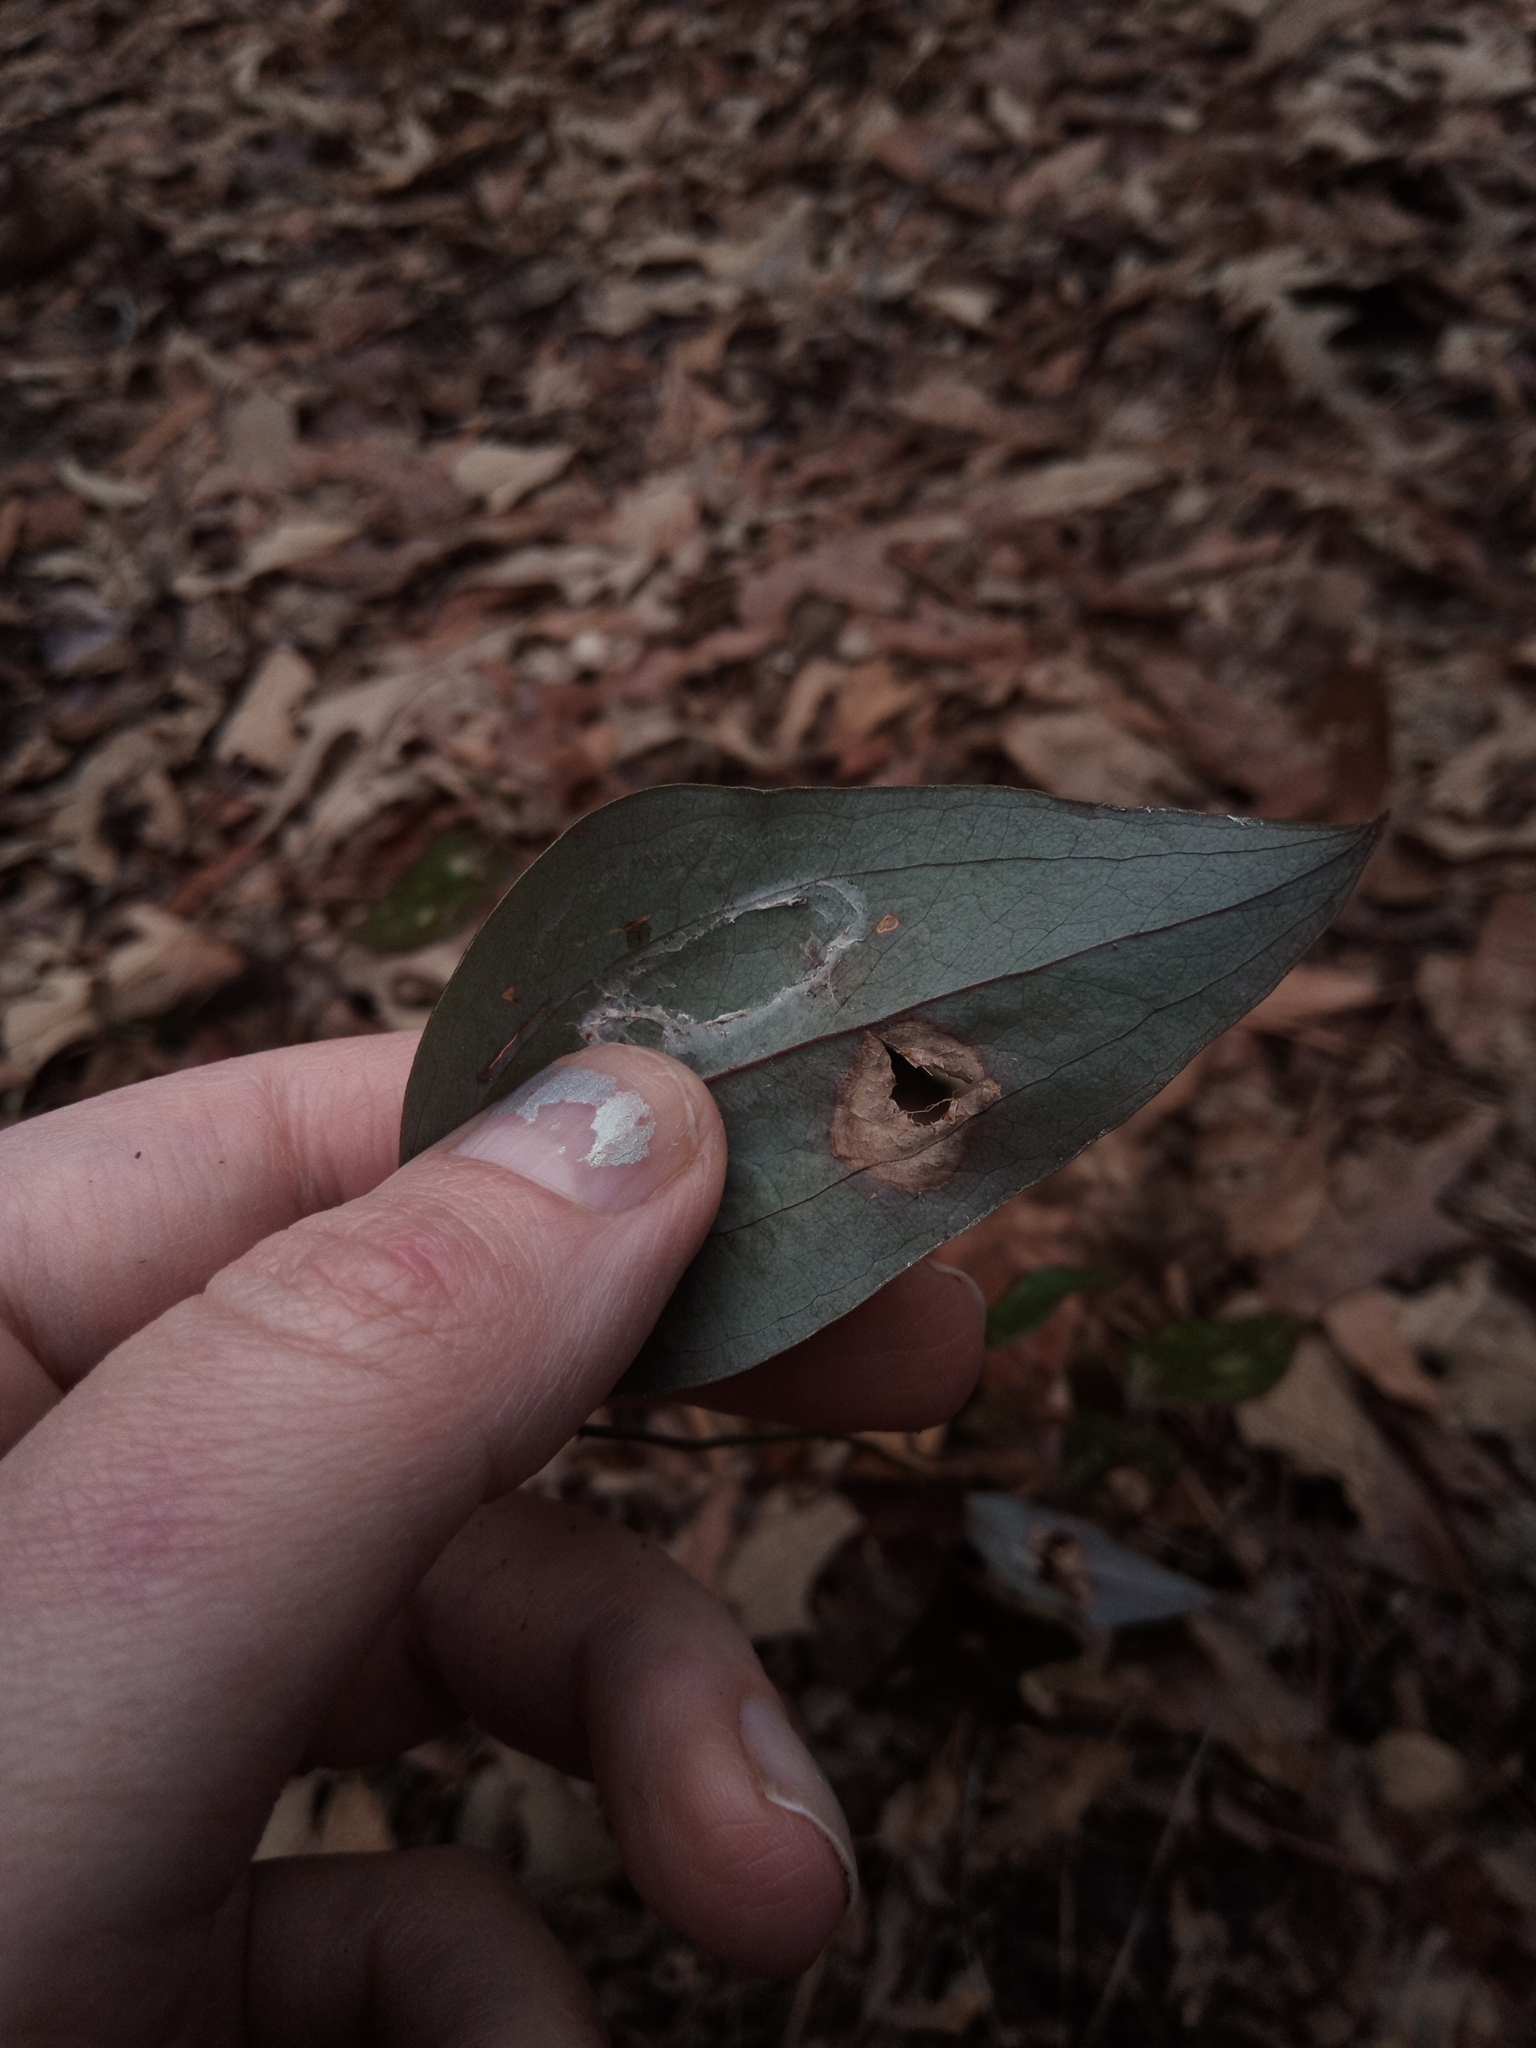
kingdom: Plantae
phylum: Tracheophyta
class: Liliopsida
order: Liliales
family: Smilacaceae
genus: Smilax
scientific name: Smilax glauca
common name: Cat greenbrier
